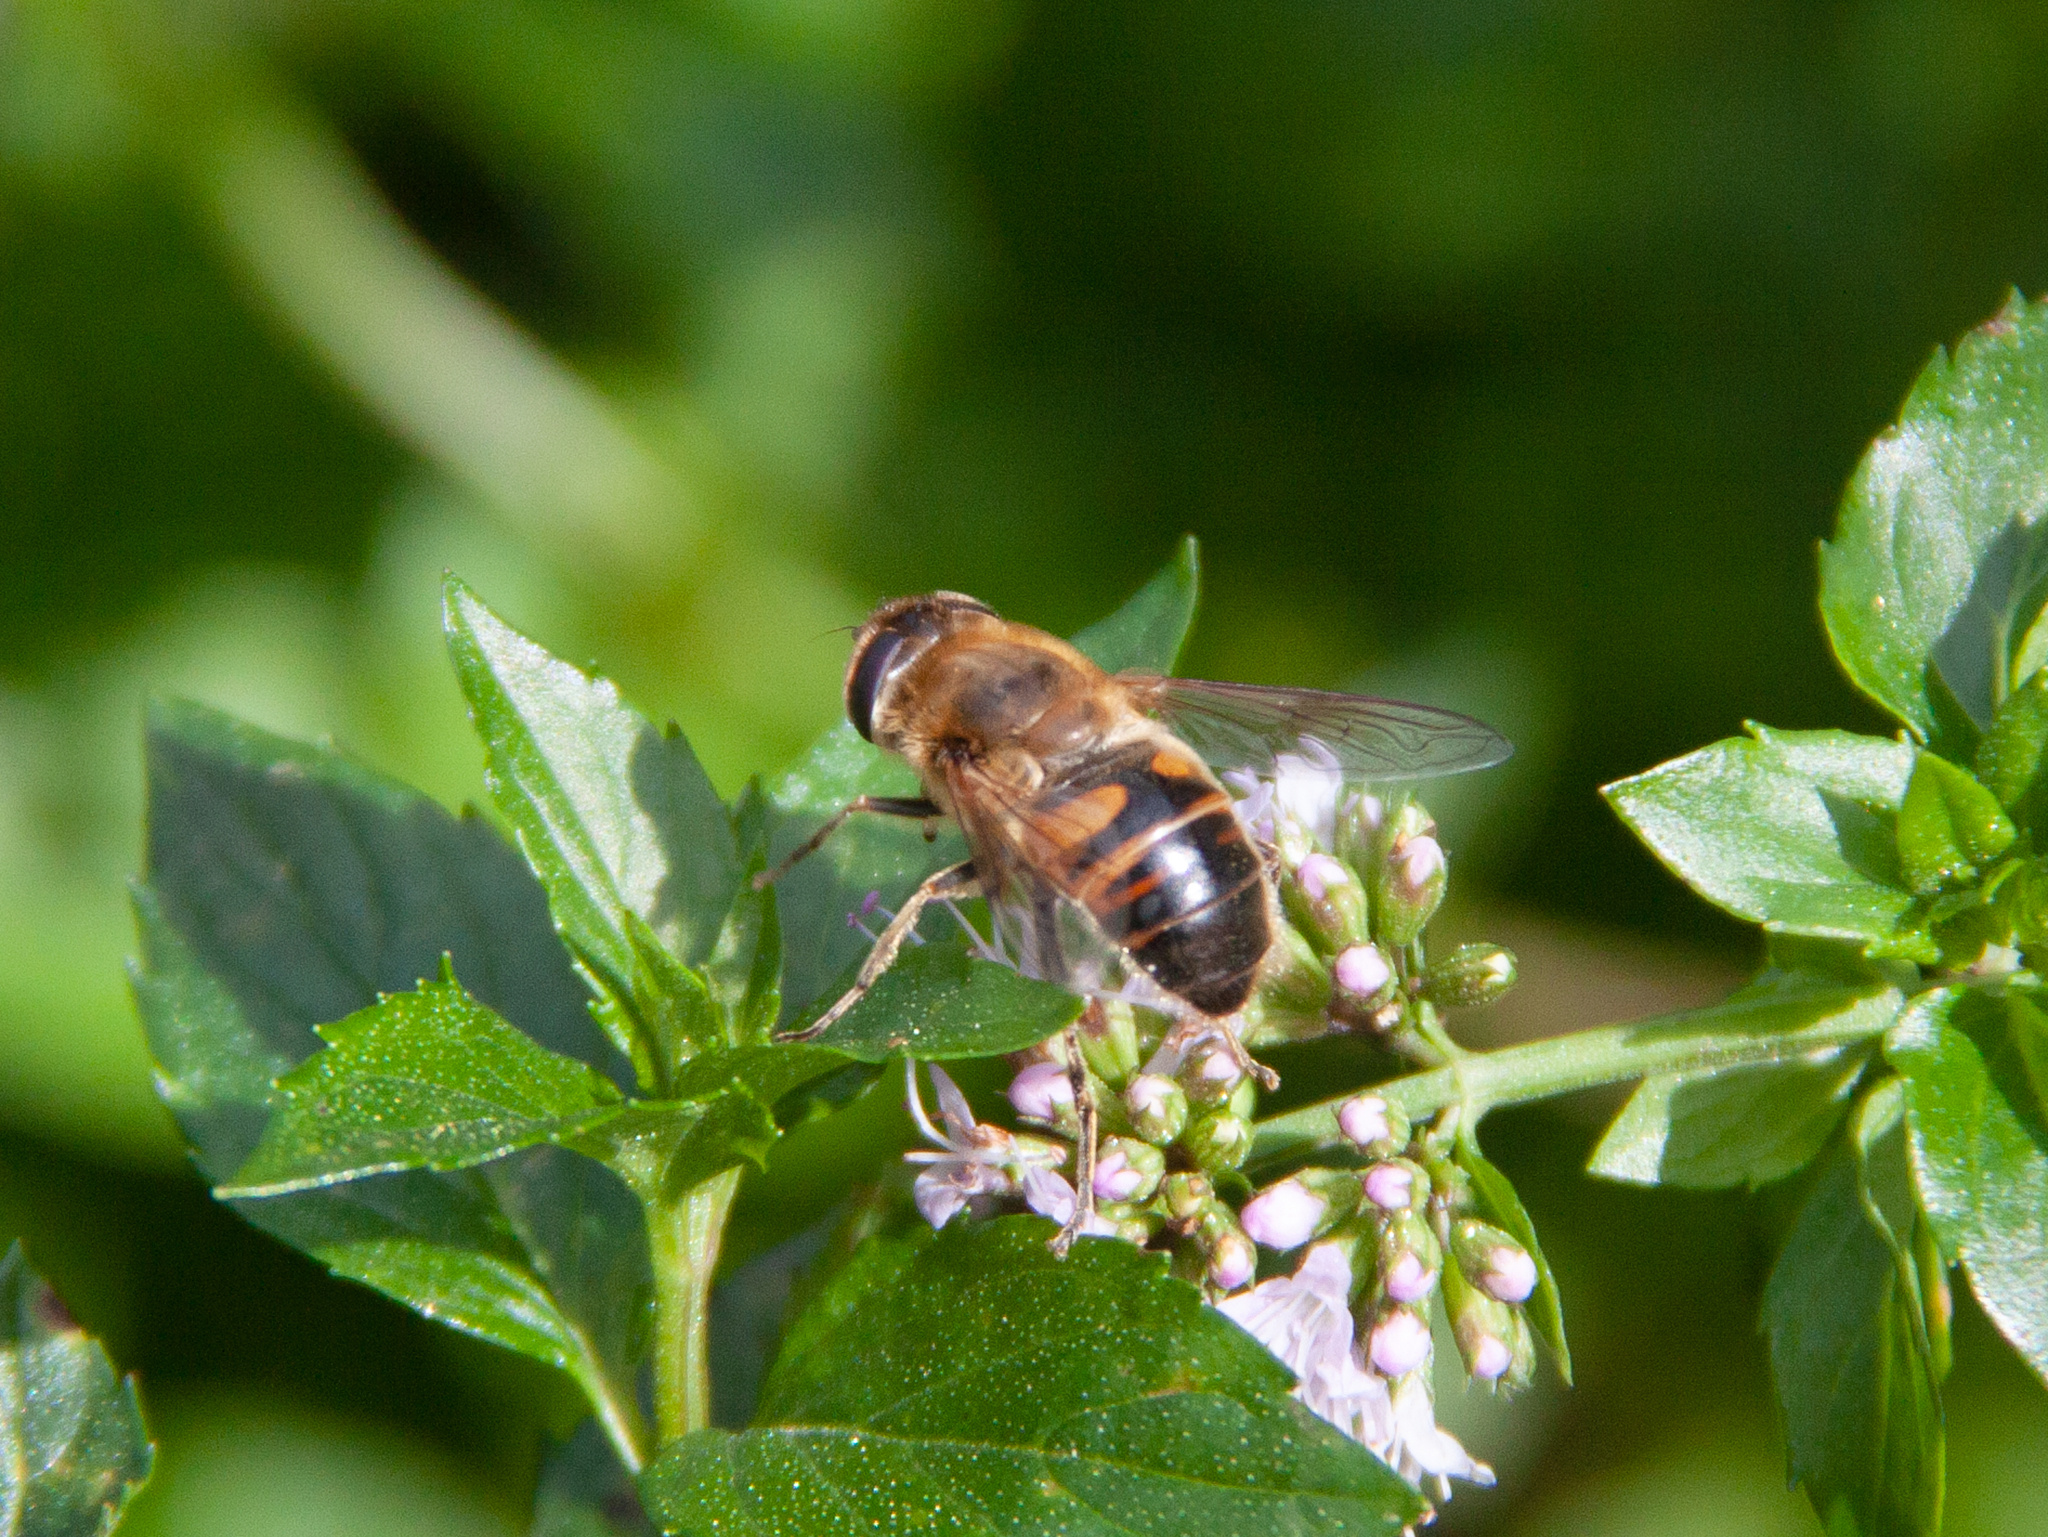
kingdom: Animalia
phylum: Arthropoda
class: Insecta
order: Diptera
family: Syrphidae
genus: Eristalis
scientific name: Eristalis tenax
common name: Drone fly
